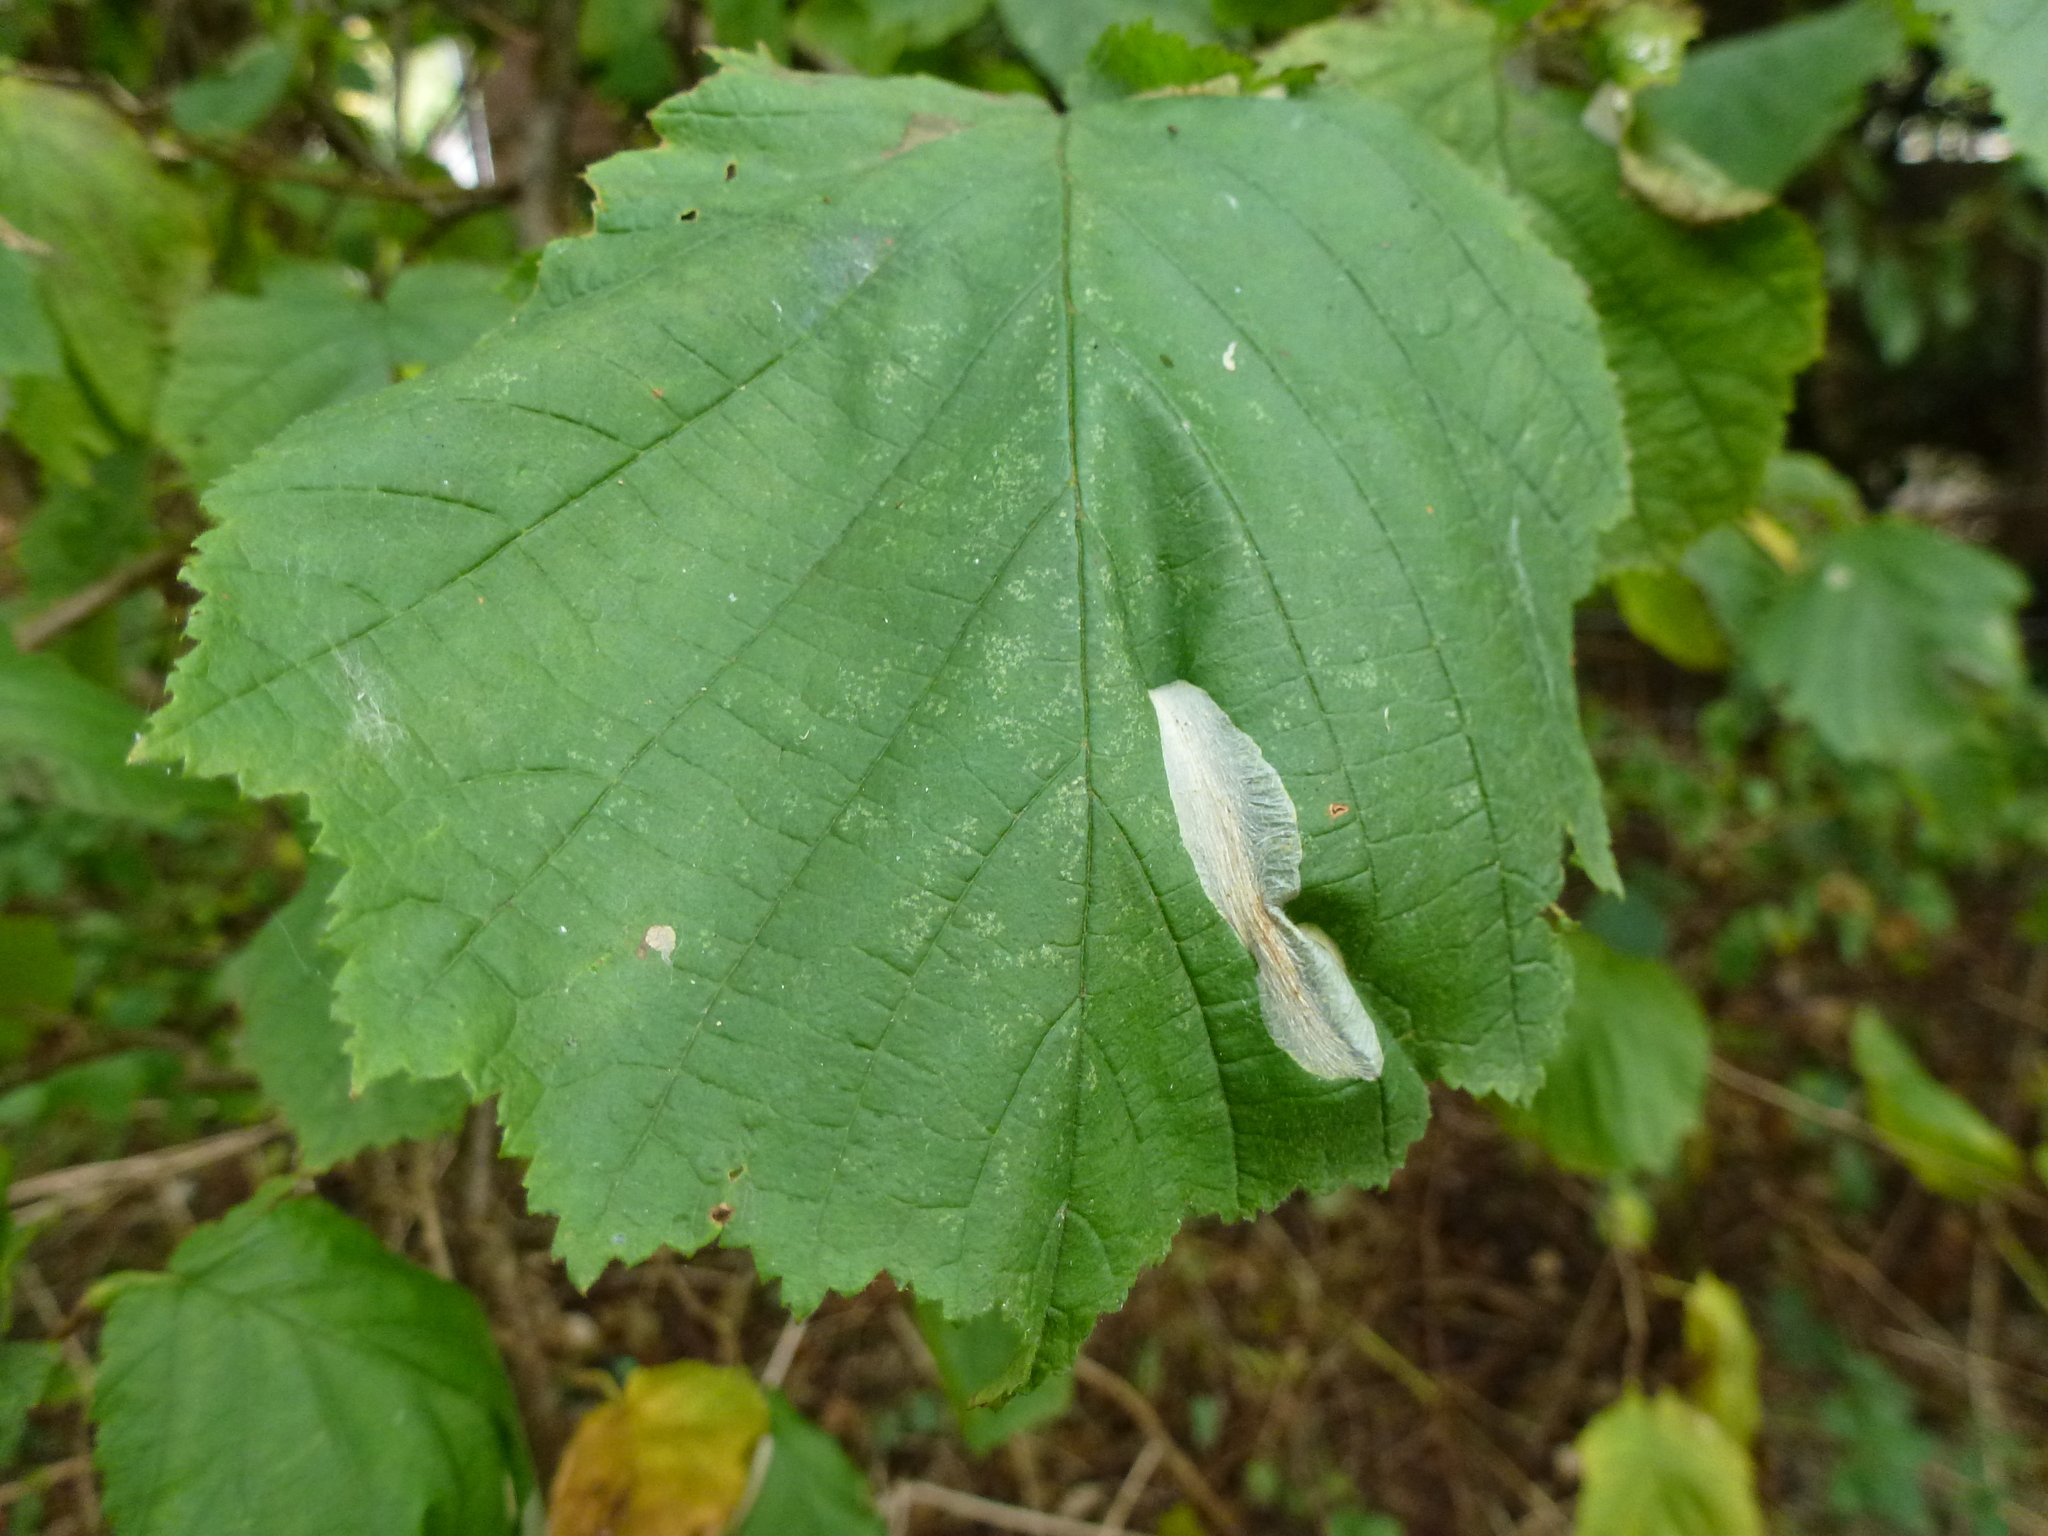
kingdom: Animalia
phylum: Arthropoda
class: Insecta
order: Lepidoptera
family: Gracillariidae
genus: Phyllonorycter
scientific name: Phyllonorycter coryli
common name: Nut-leaf blister moth
